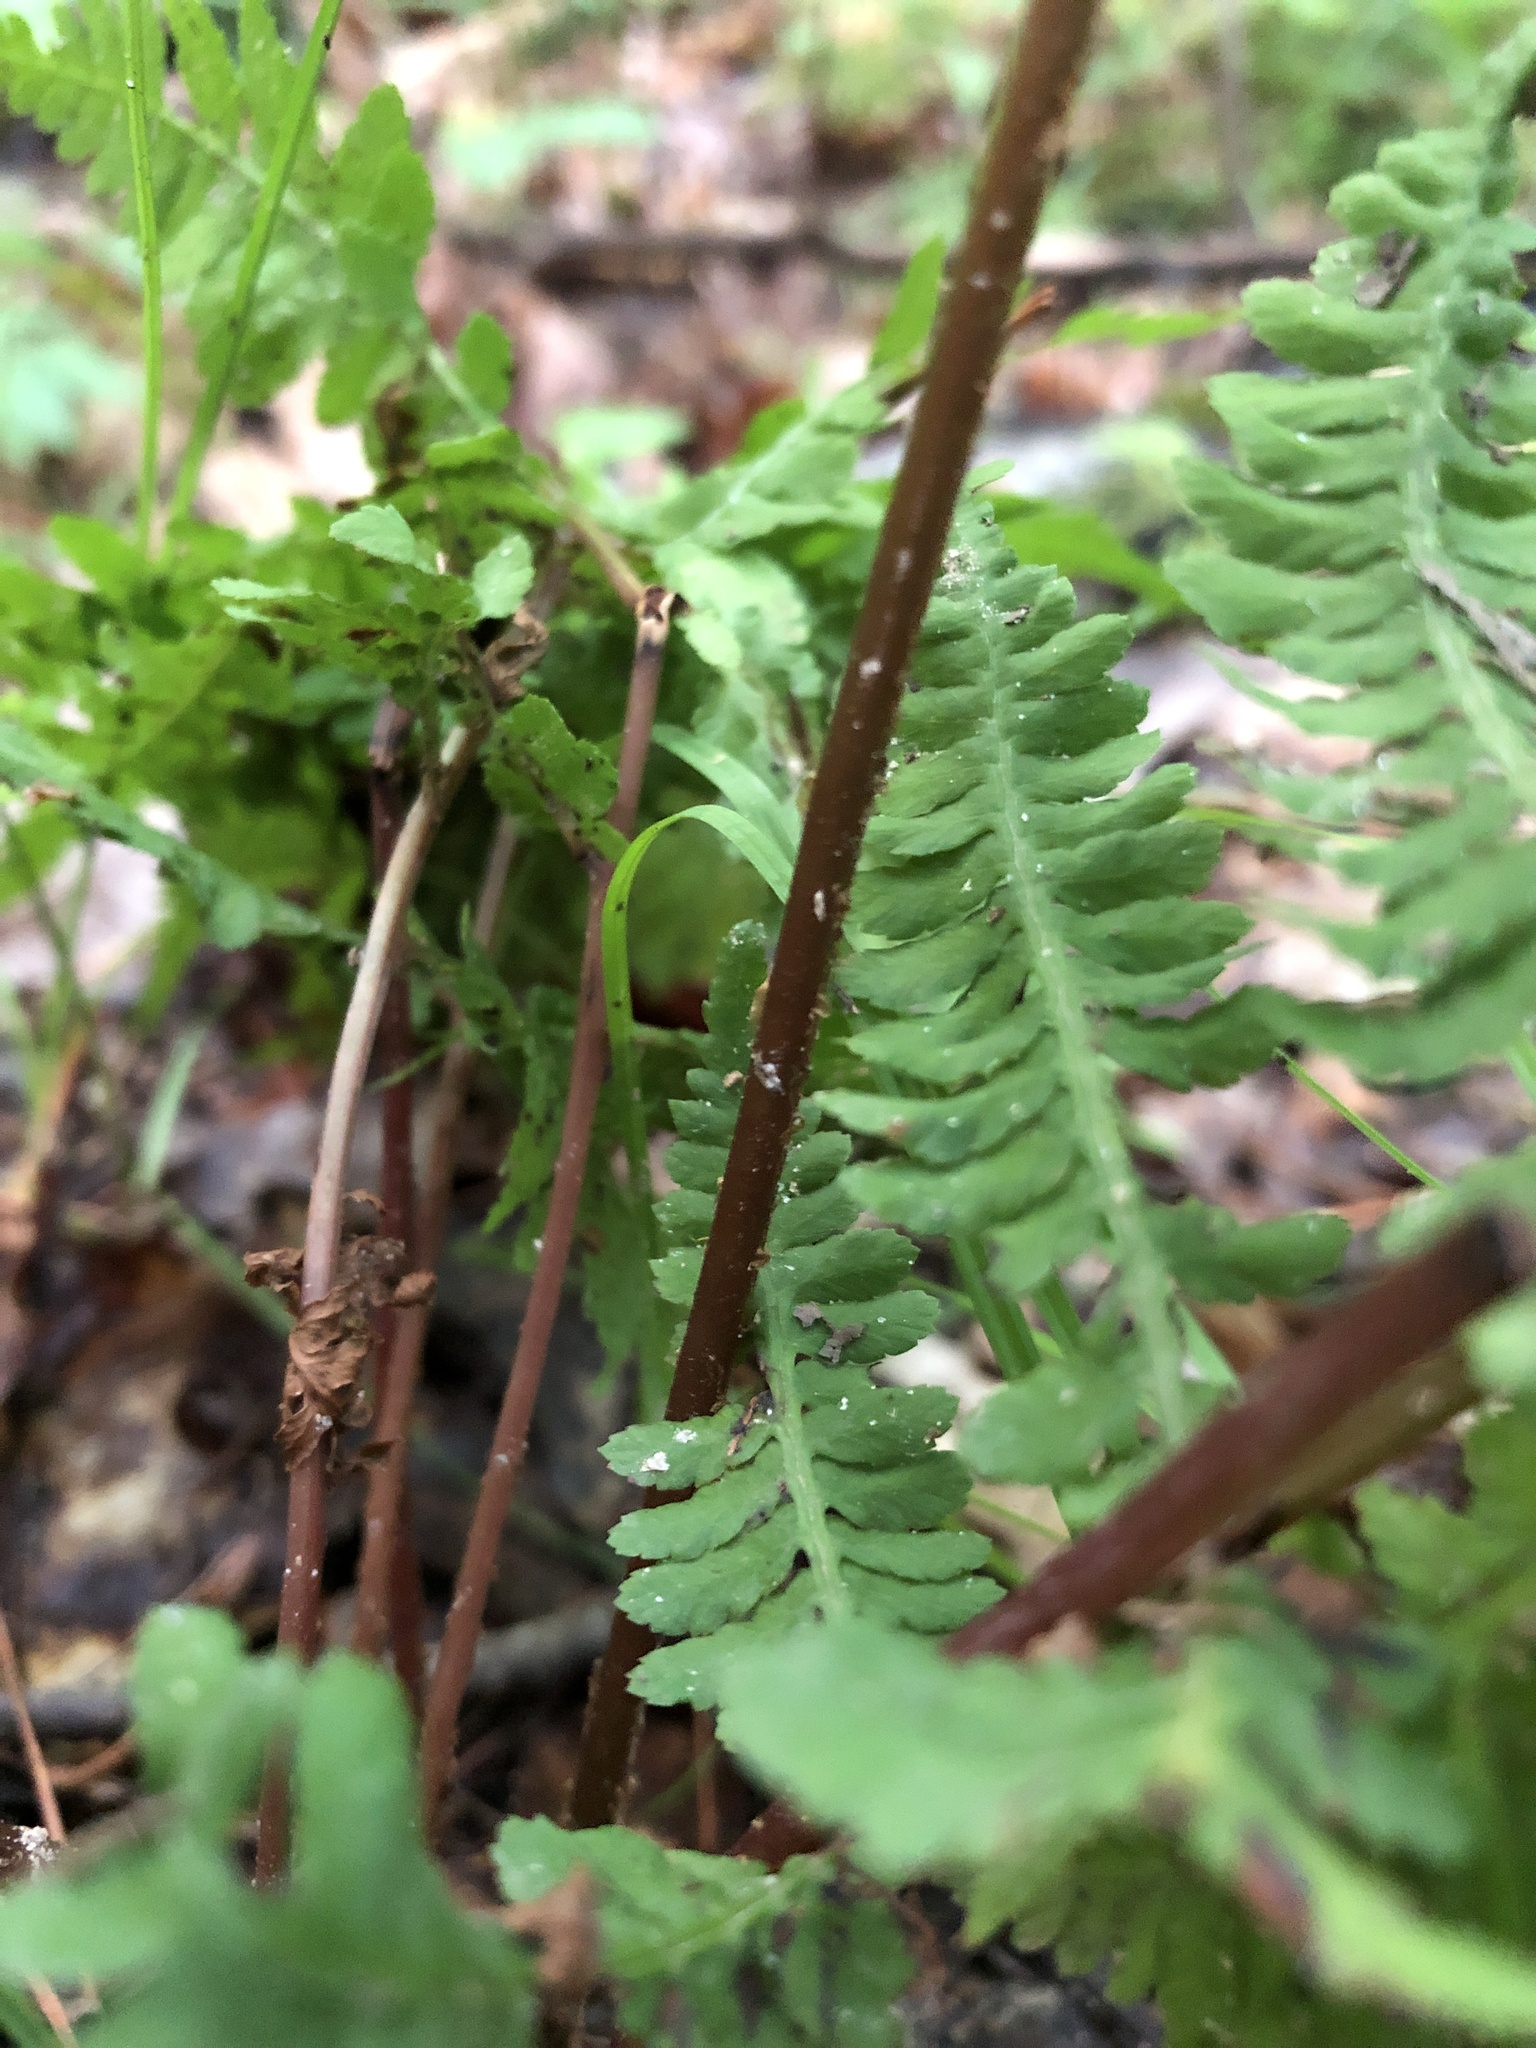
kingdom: Plantae
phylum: Tracheophyta
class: Polypodiopsida
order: Polypodiales
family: Athyriaceae
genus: Athyrium
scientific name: Athyrium asplenioides
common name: Southern lady fern
